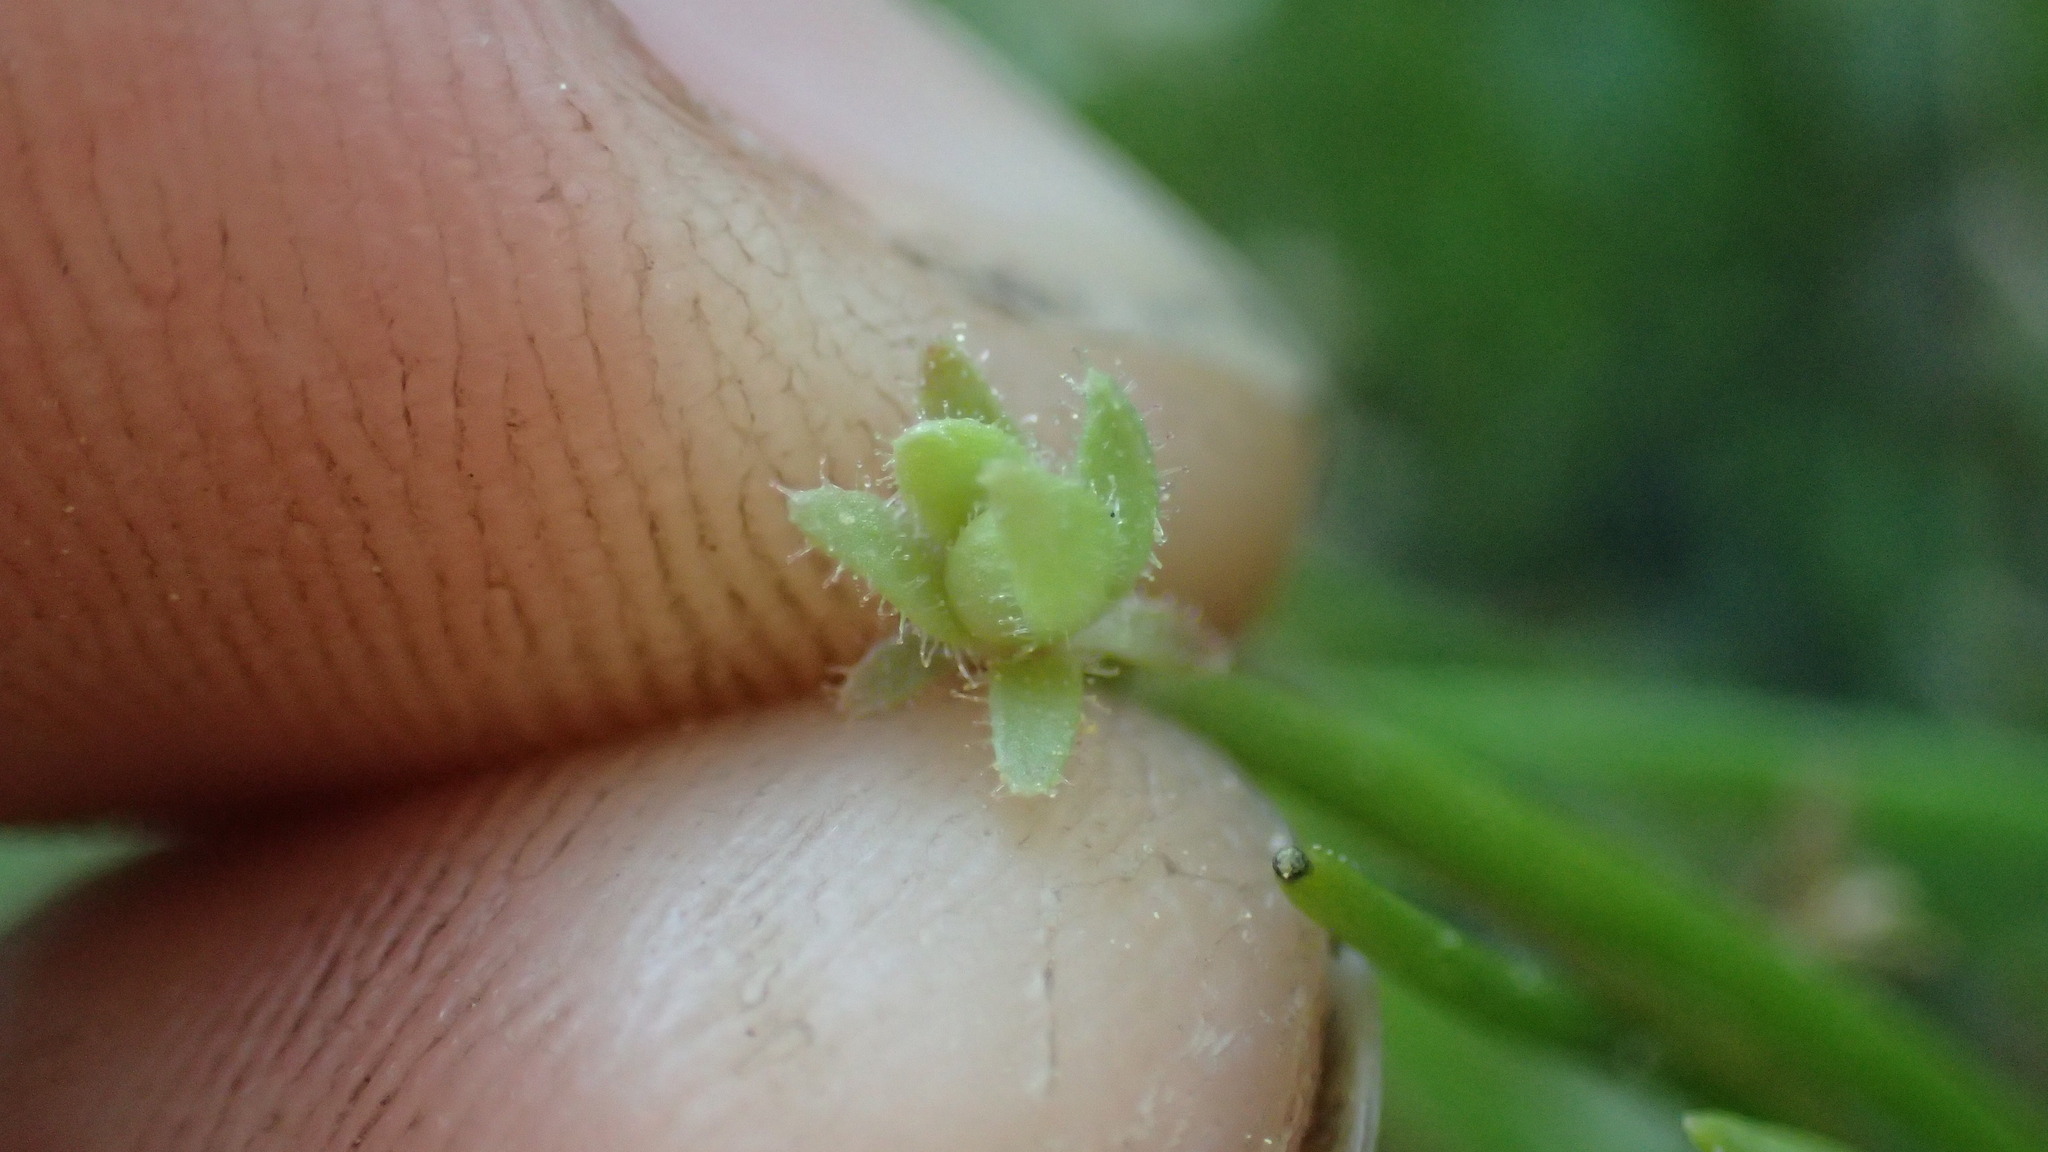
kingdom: Plantae
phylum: Tracheophyta
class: Magnoliopsida
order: Saxifragales
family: Saxifragaceae
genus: Micranthes
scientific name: Micranthes bryophora
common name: Bud saxifrage
